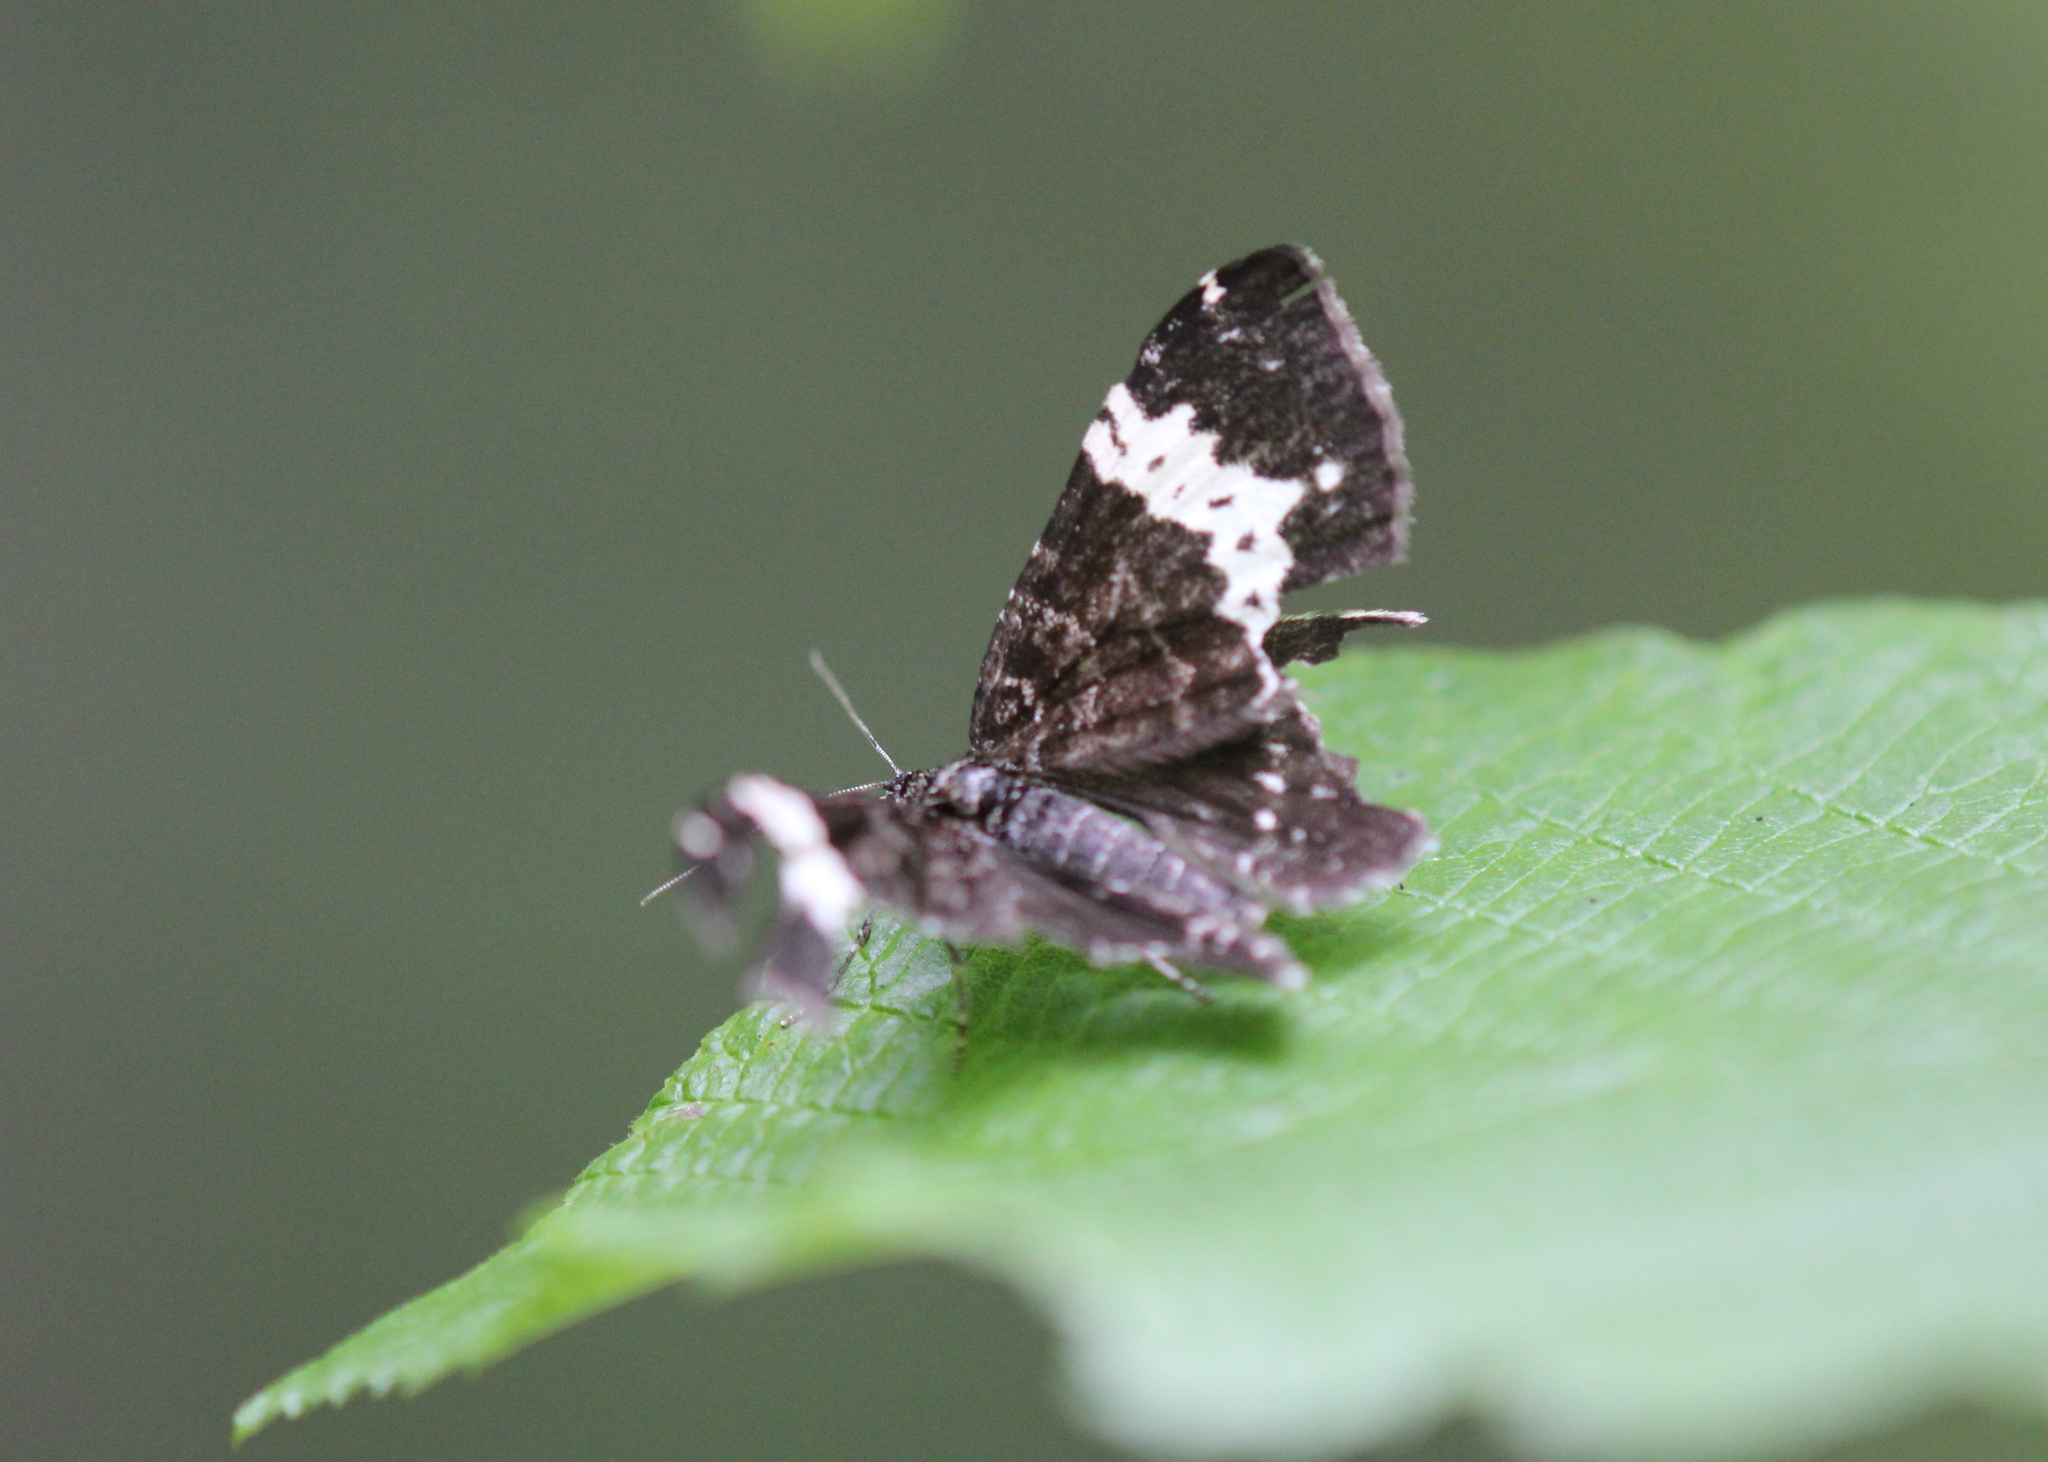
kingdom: Animalia
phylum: Arthropoda
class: Insecta
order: Lepidoptera
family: Geometridae
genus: Rheumaptera
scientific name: Rheumaptera
